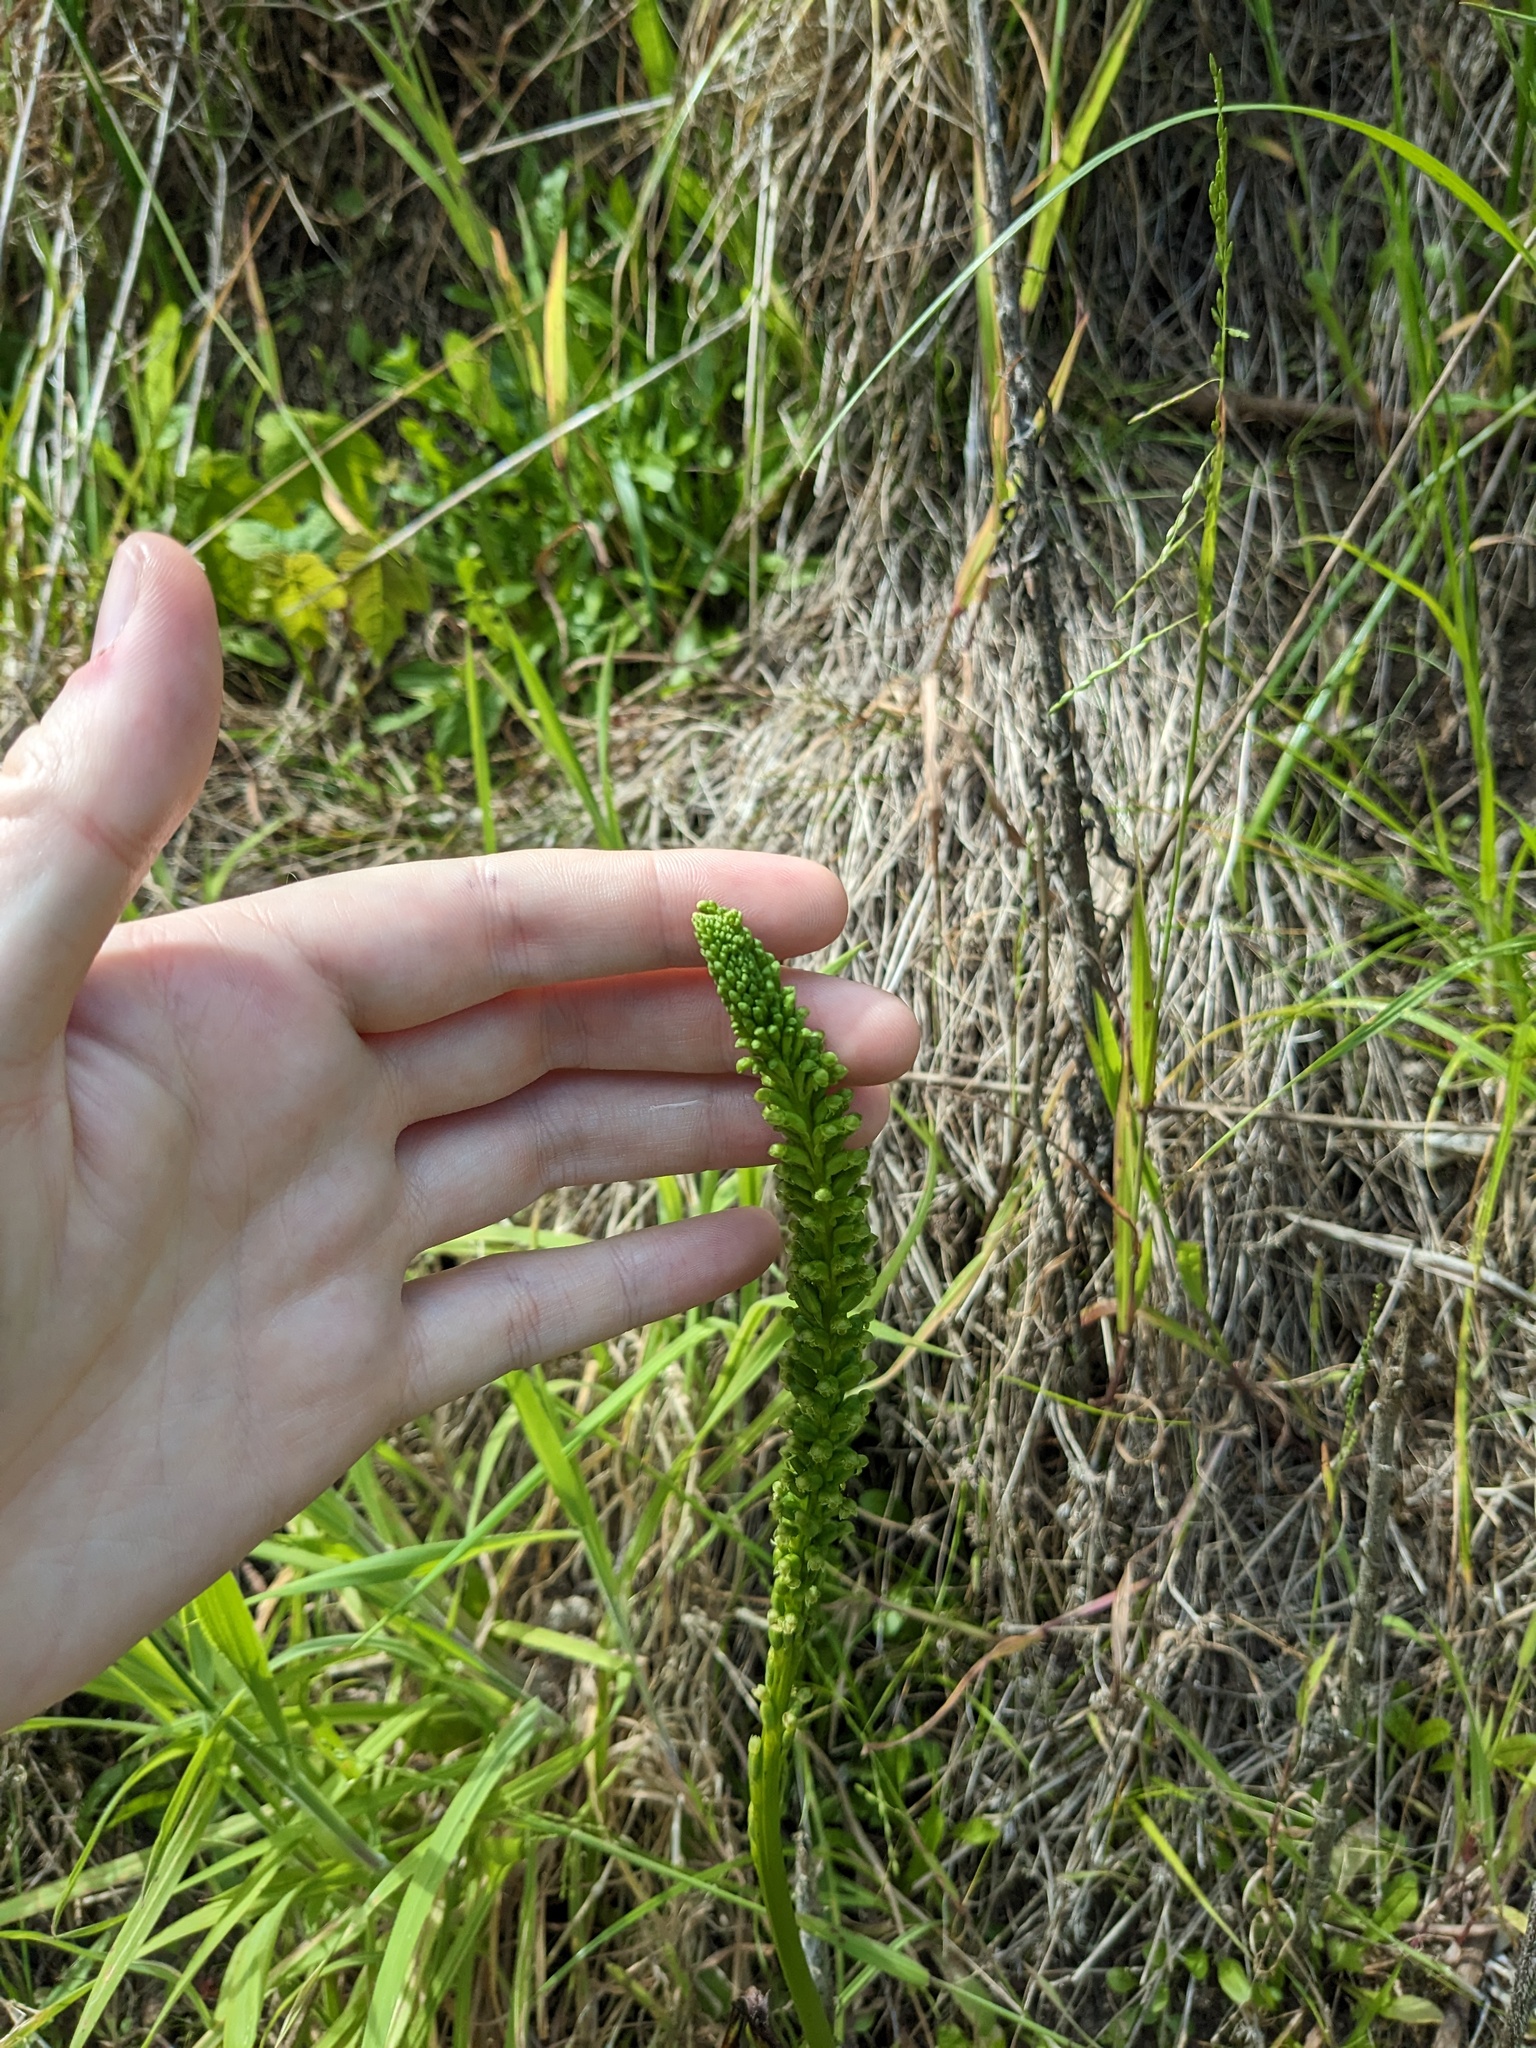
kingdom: Plantae
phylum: Tracheophyta
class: Liliopsida
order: Asparagales
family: Orchidaceae
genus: Microtis
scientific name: Microtis unifolia
